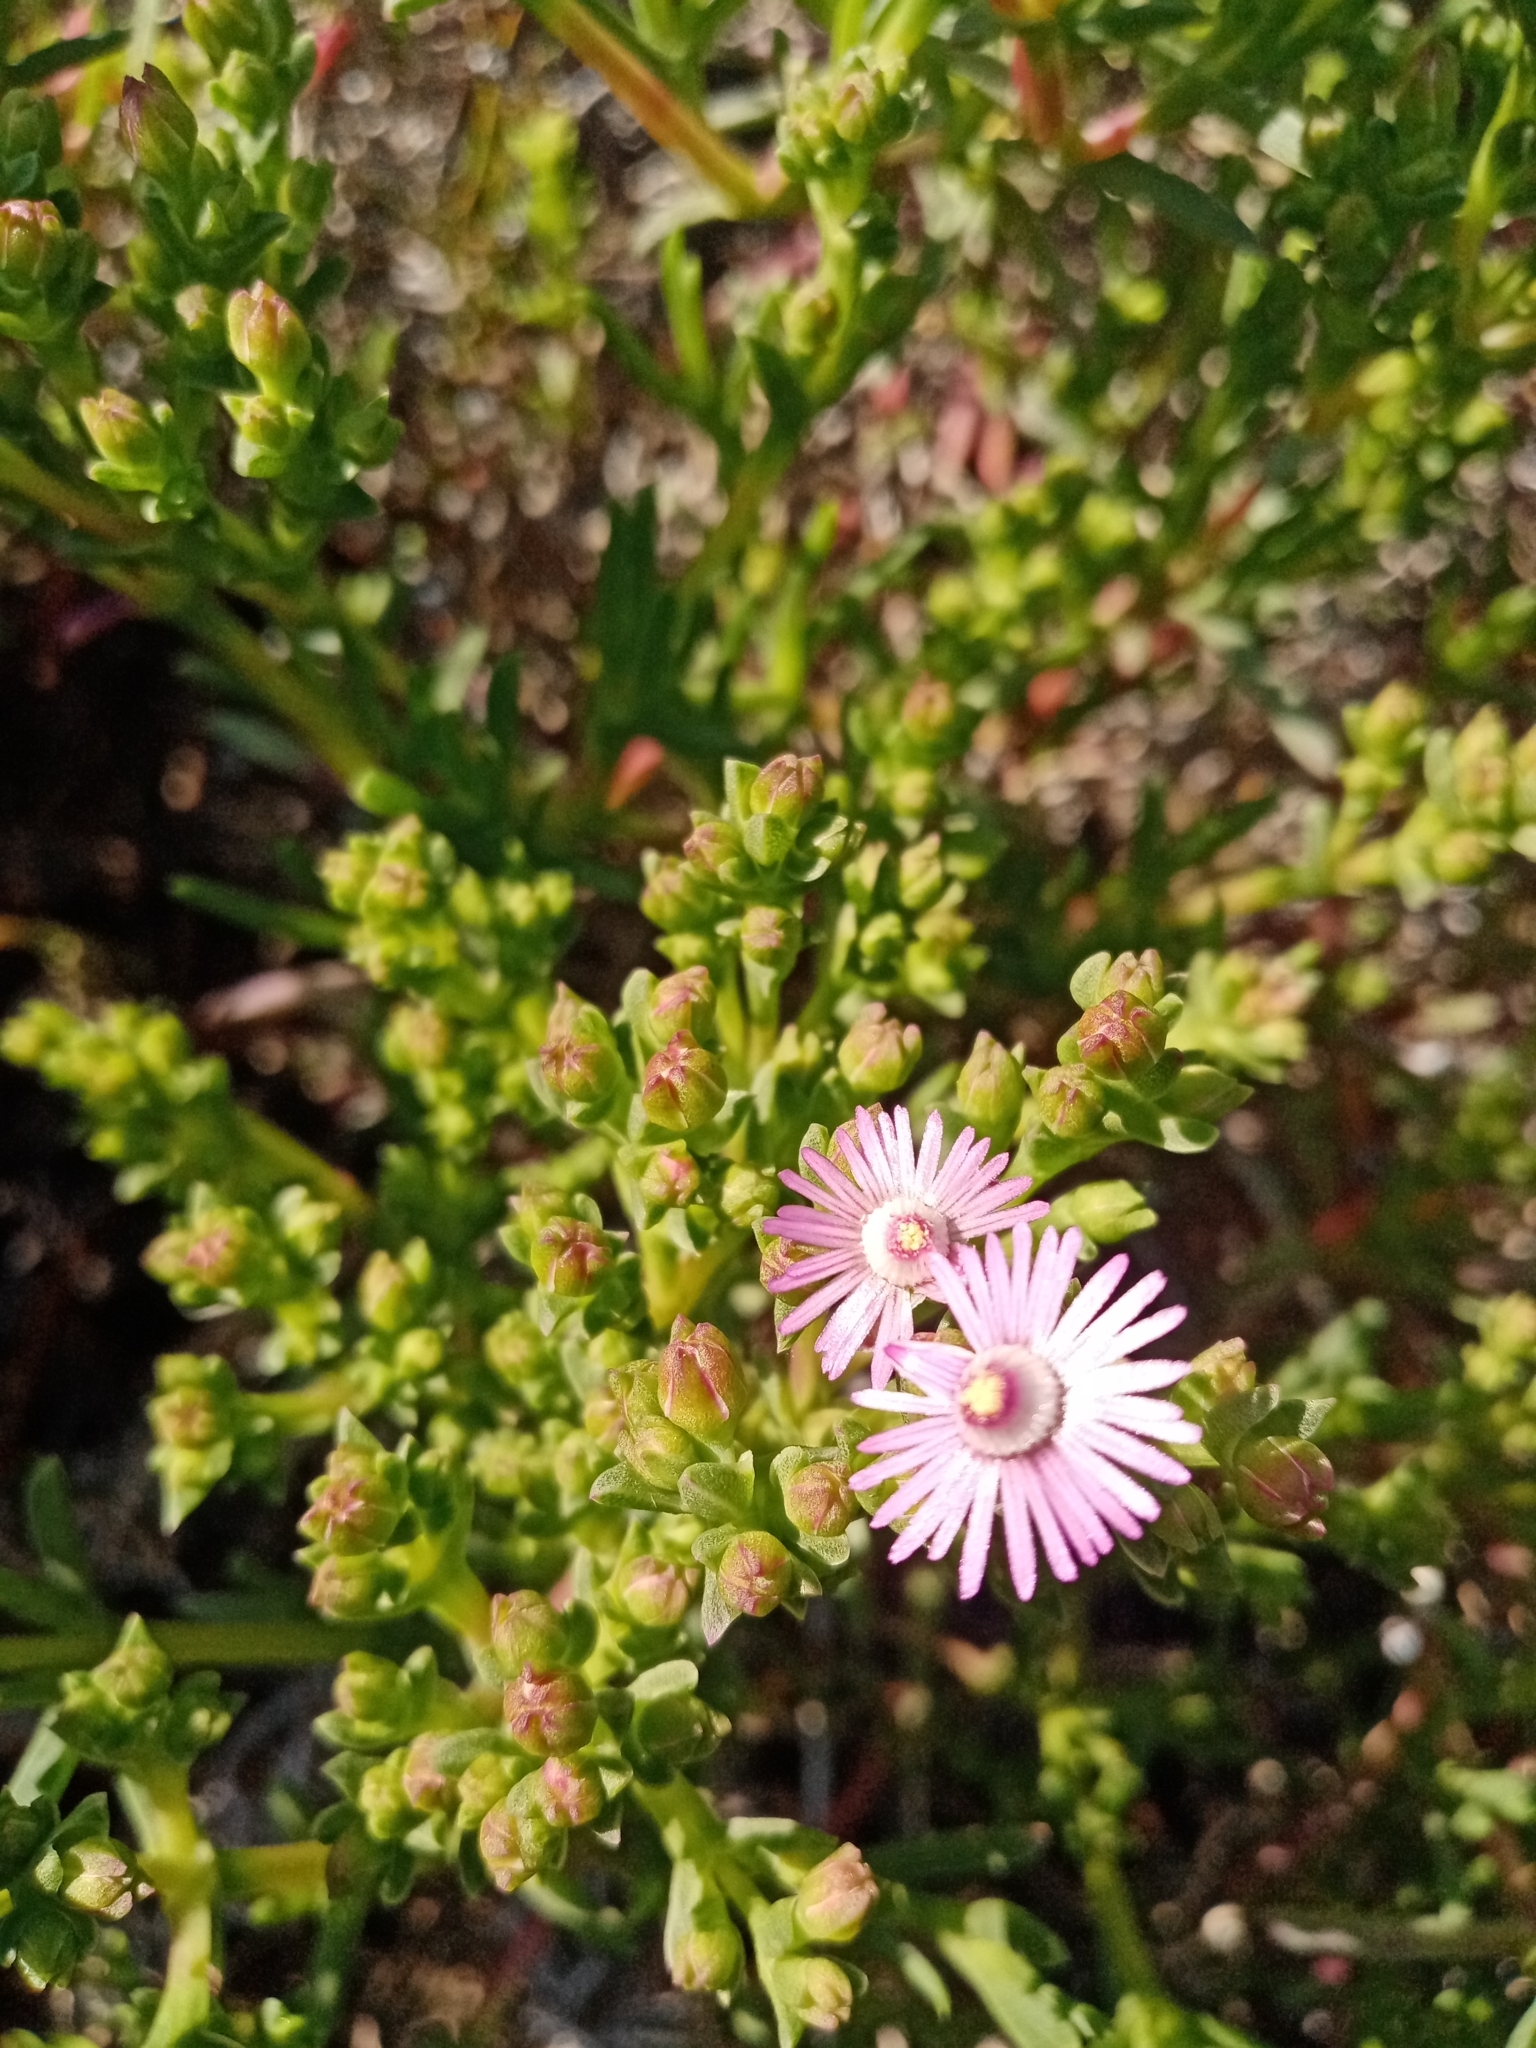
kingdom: Plantae
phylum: Tracheophyta
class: Magnoliopsida
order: Caryophyllales
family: Aizoaceae
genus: Ruschia
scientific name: Ruschia macowanii
